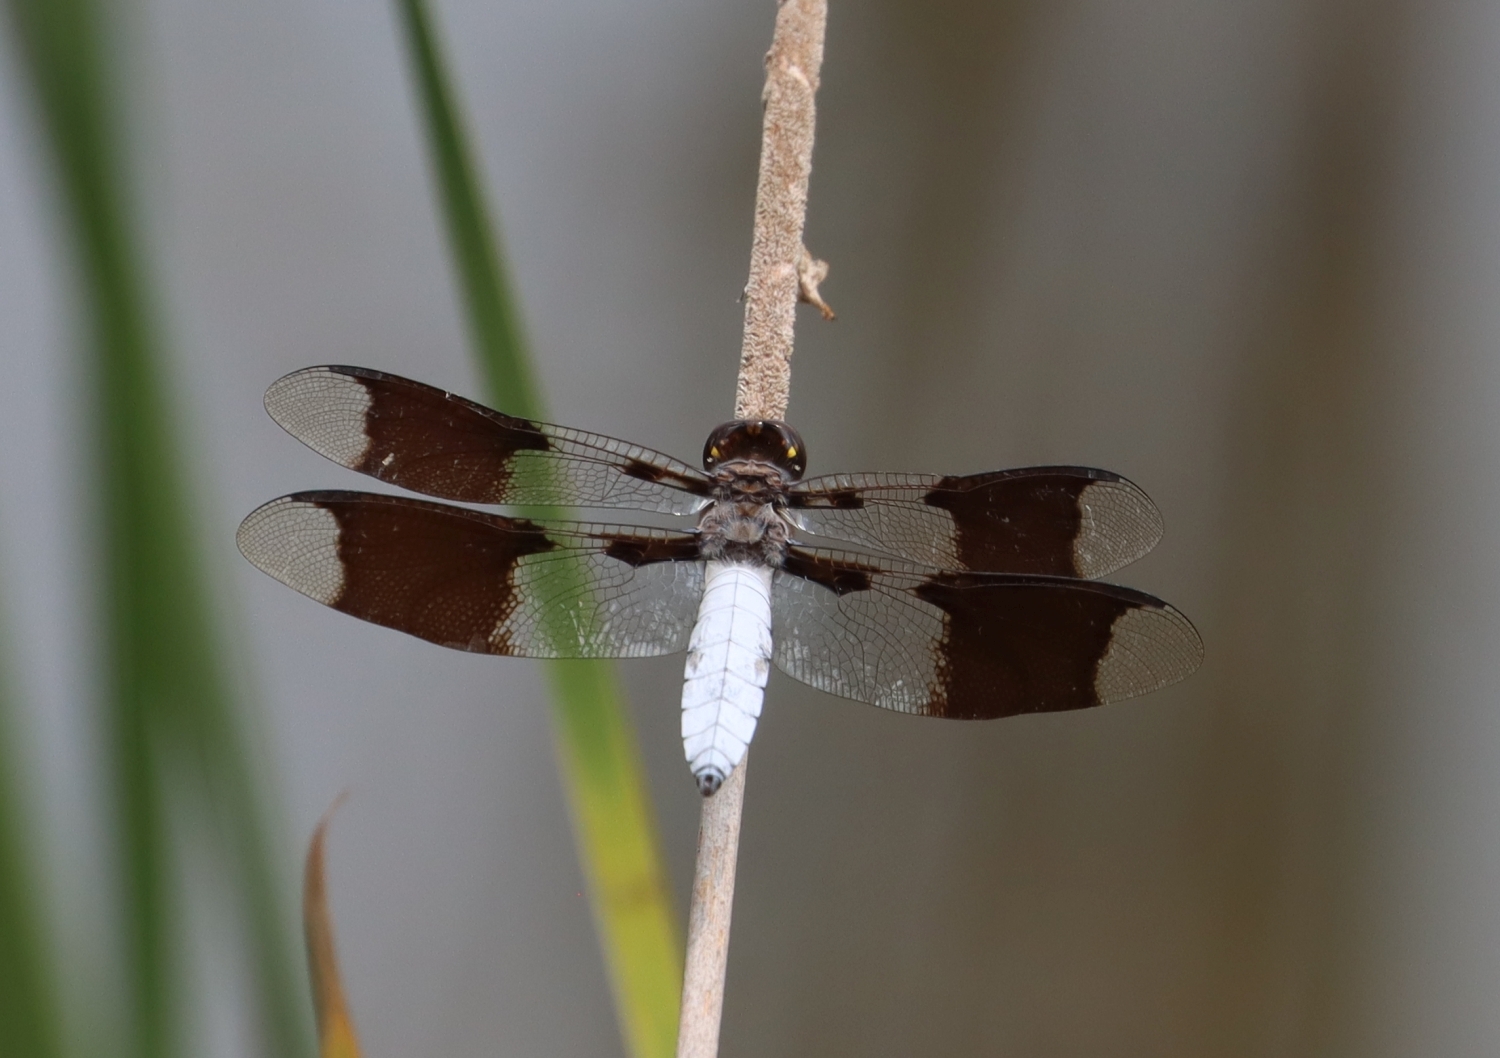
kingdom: Animalia
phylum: Arthropoda
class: Insecta
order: Odonata
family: Libellulidae
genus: Plathemis
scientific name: Plathemis lydia
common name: Common whitetail
